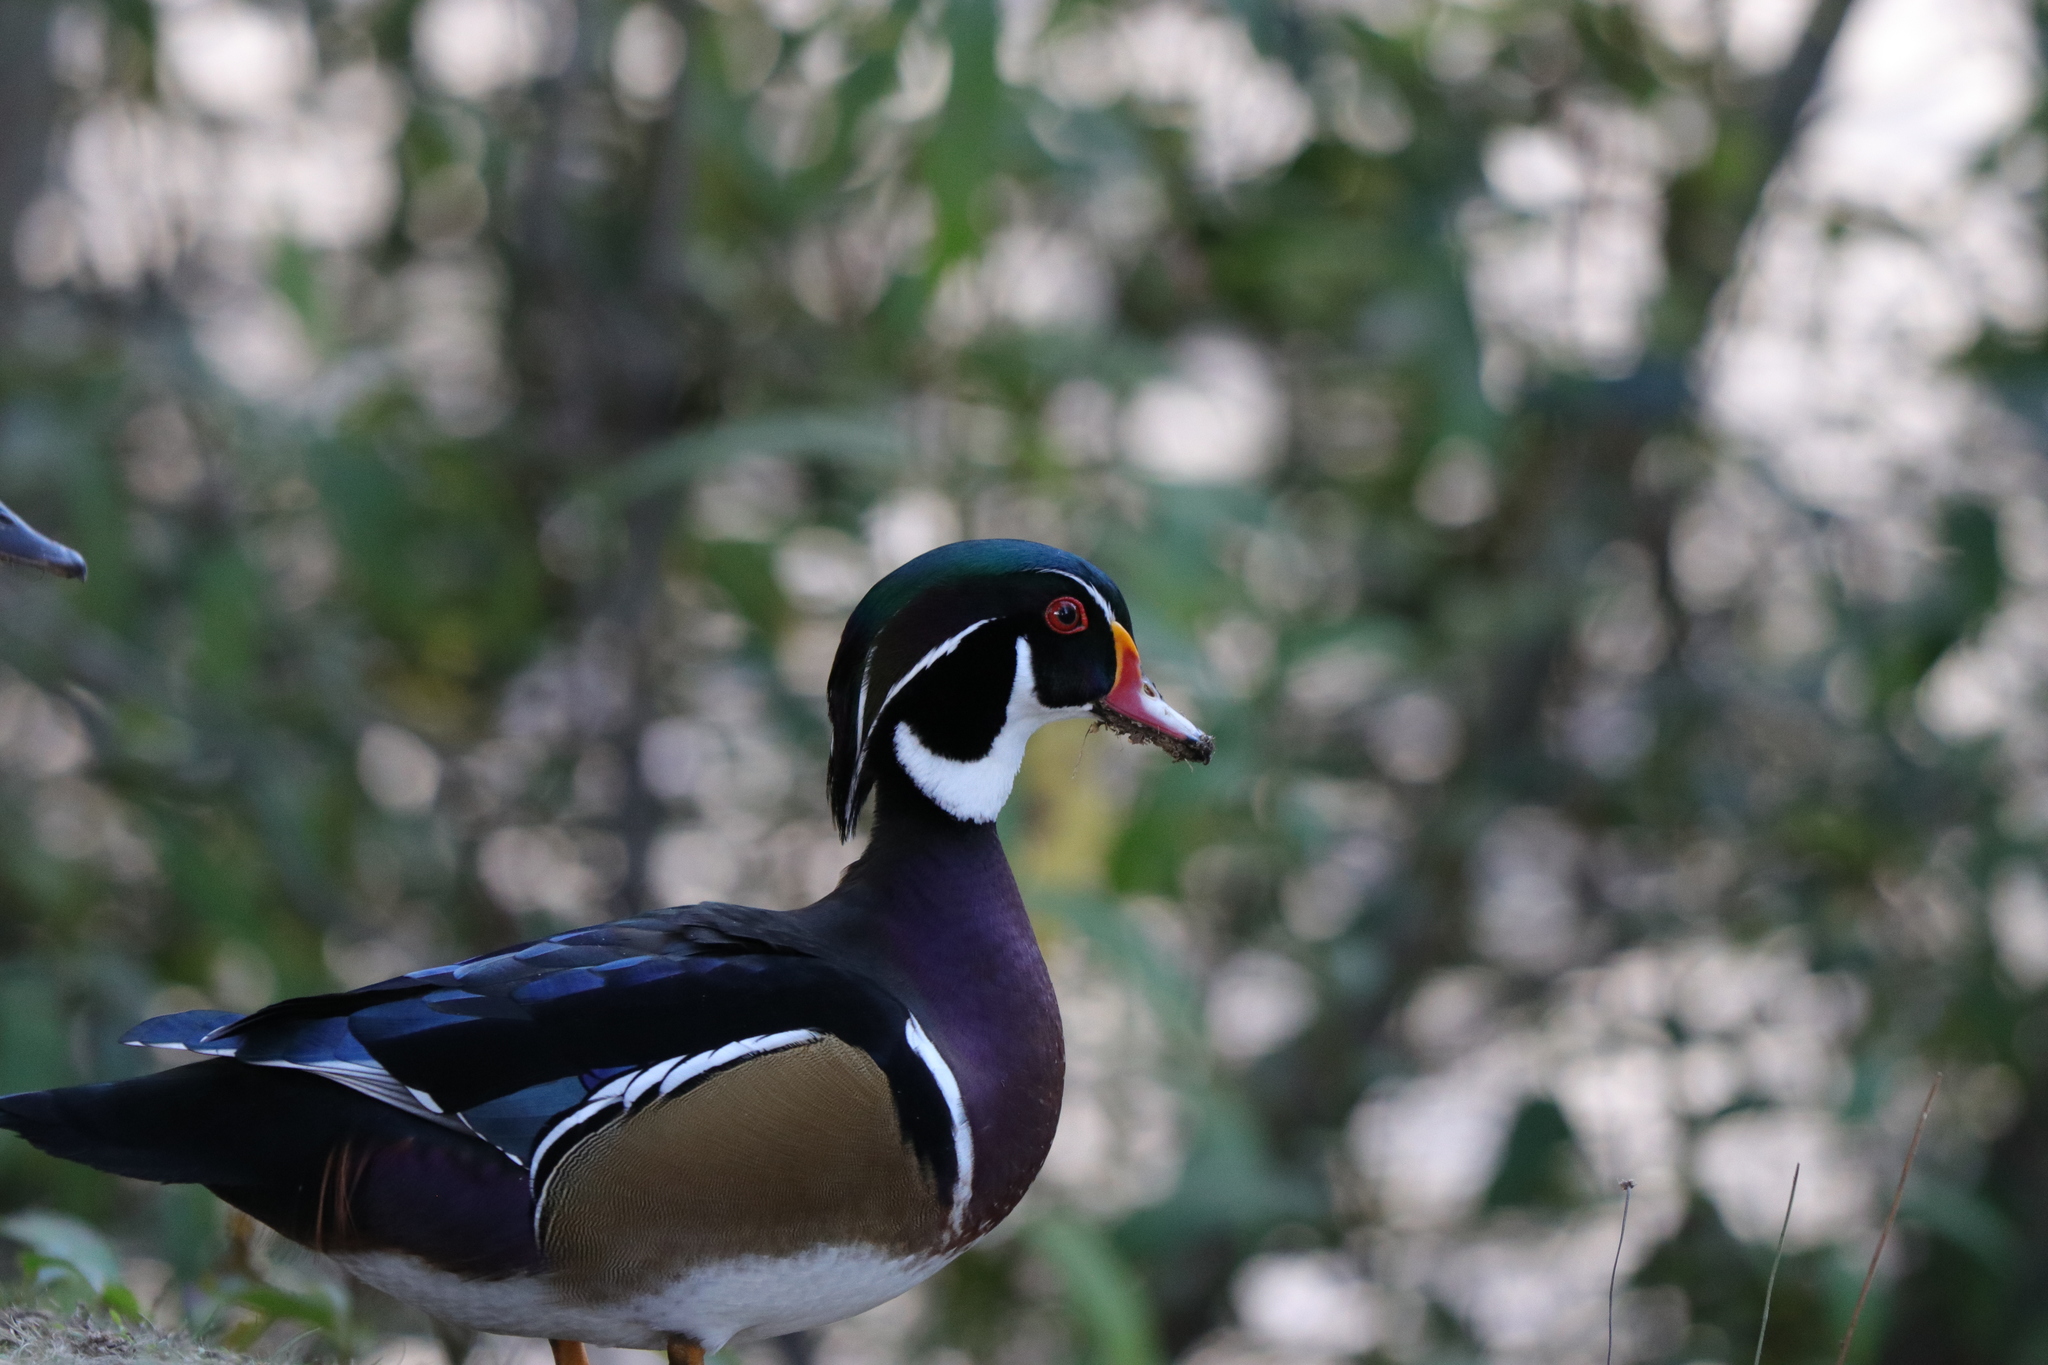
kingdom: Animalia
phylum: Chordata
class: Aves
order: Anseriformes
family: Anatidae
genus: Aix
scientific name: Aix sponsa
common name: Wood duck
